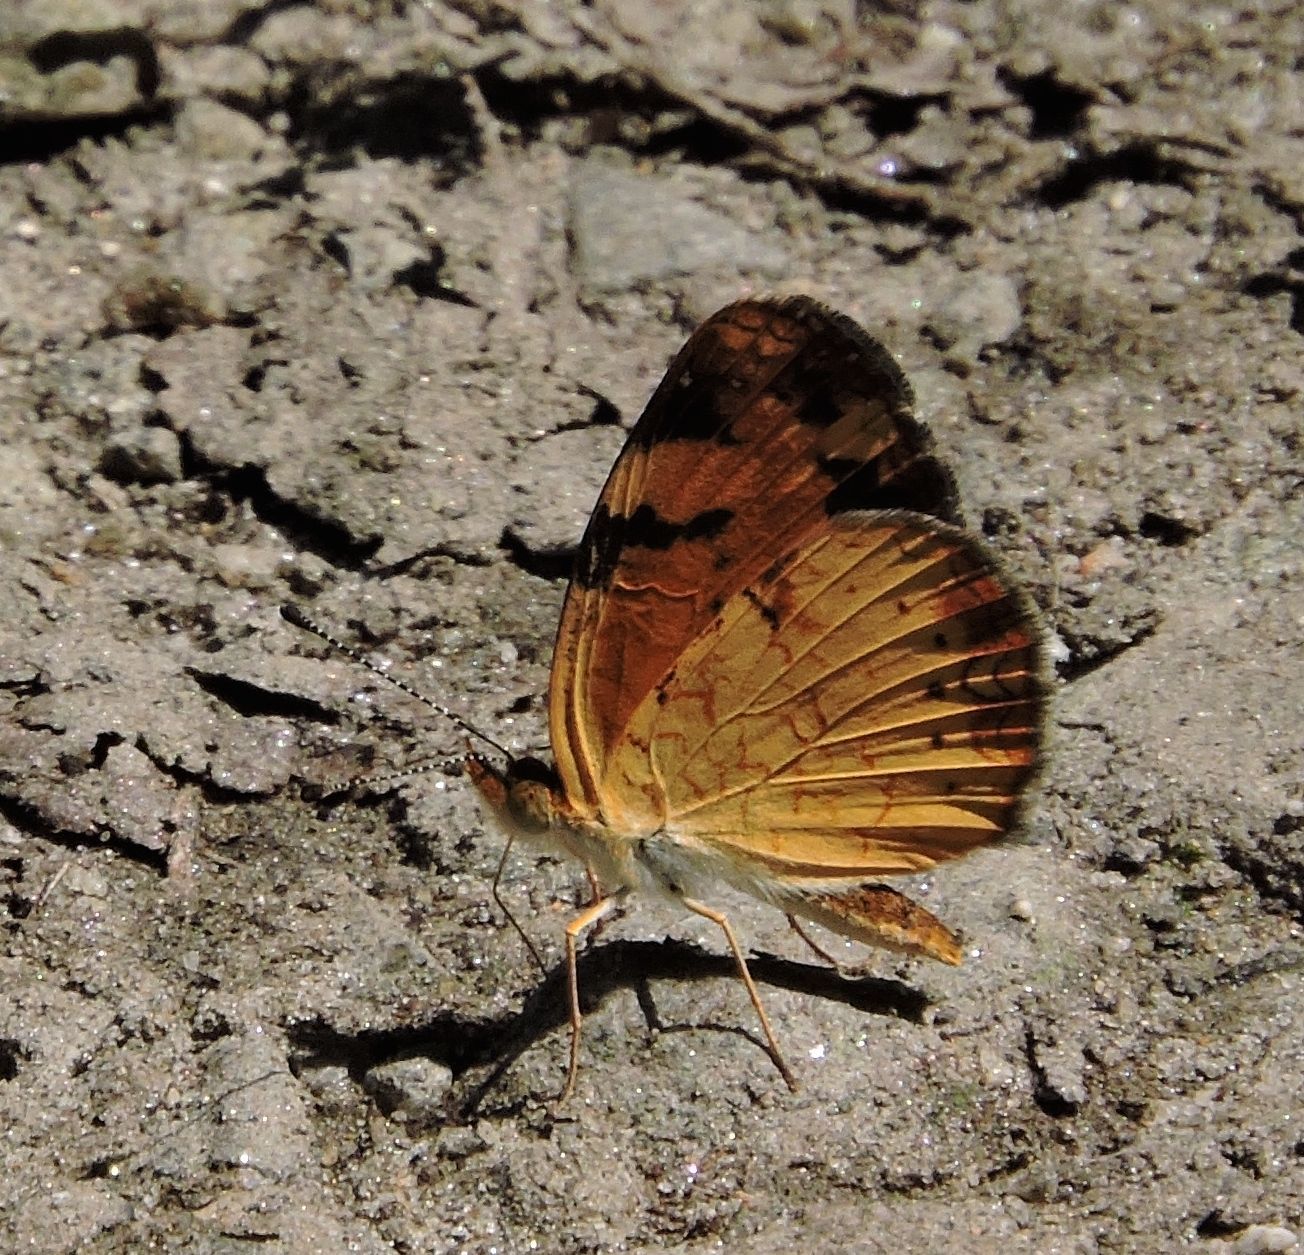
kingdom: Animalia
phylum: Arthropoda
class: Insecta
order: Lepidoptera
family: Nymphalidae
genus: Phyciodes
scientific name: Phyciodes tharos
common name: Pearl crescent
